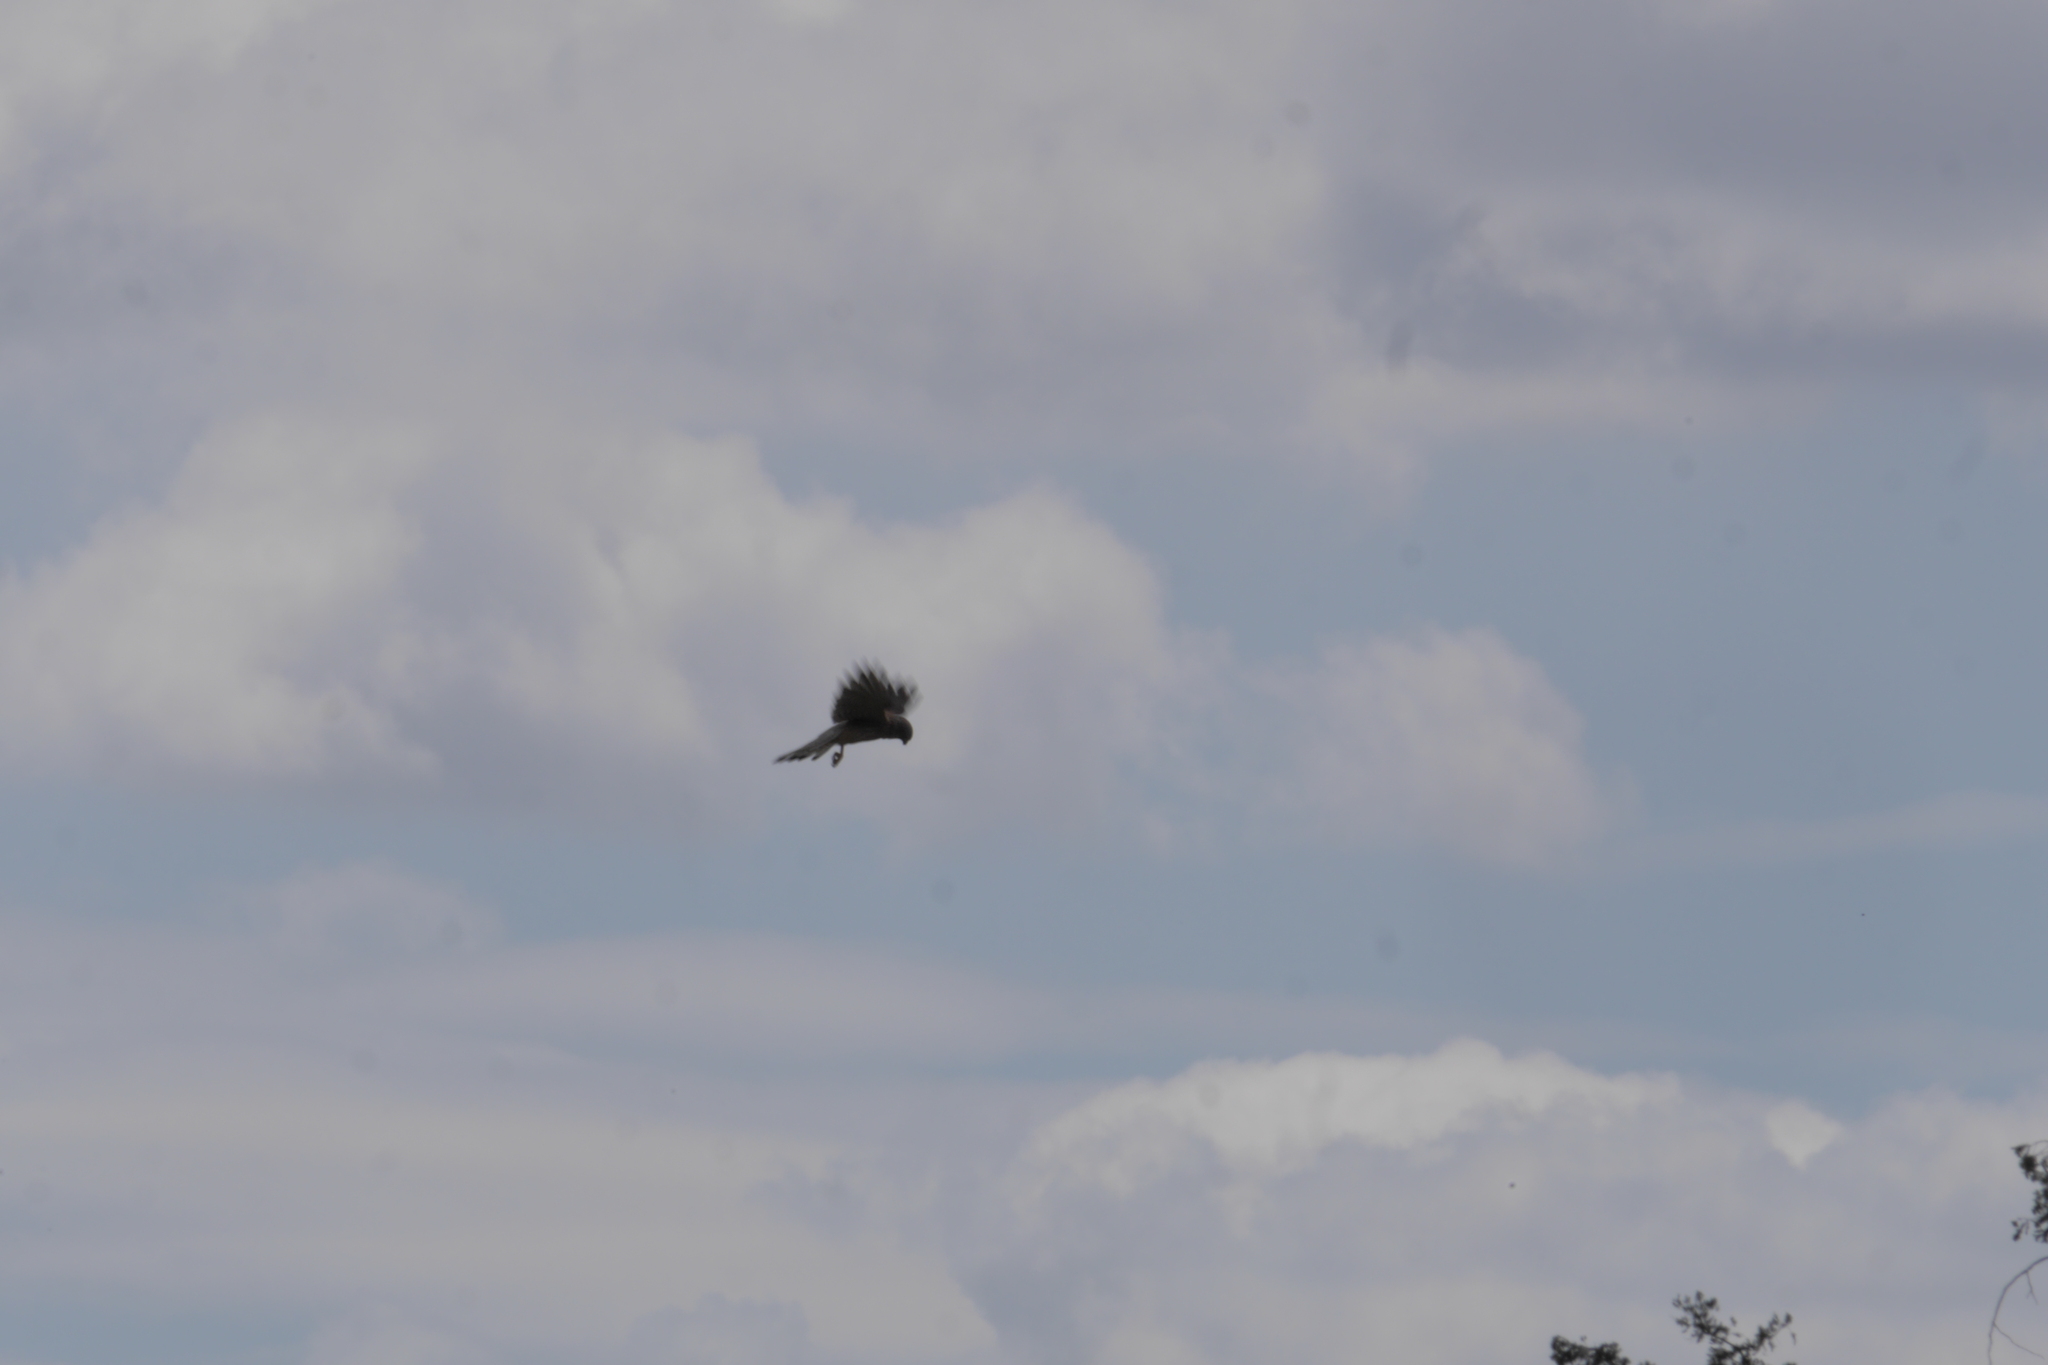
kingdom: Animalia
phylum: Chordata
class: Aves
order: Falconiformes
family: Falconidae
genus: Falco
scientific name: Falco tinnunculus
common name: Common kestrel
